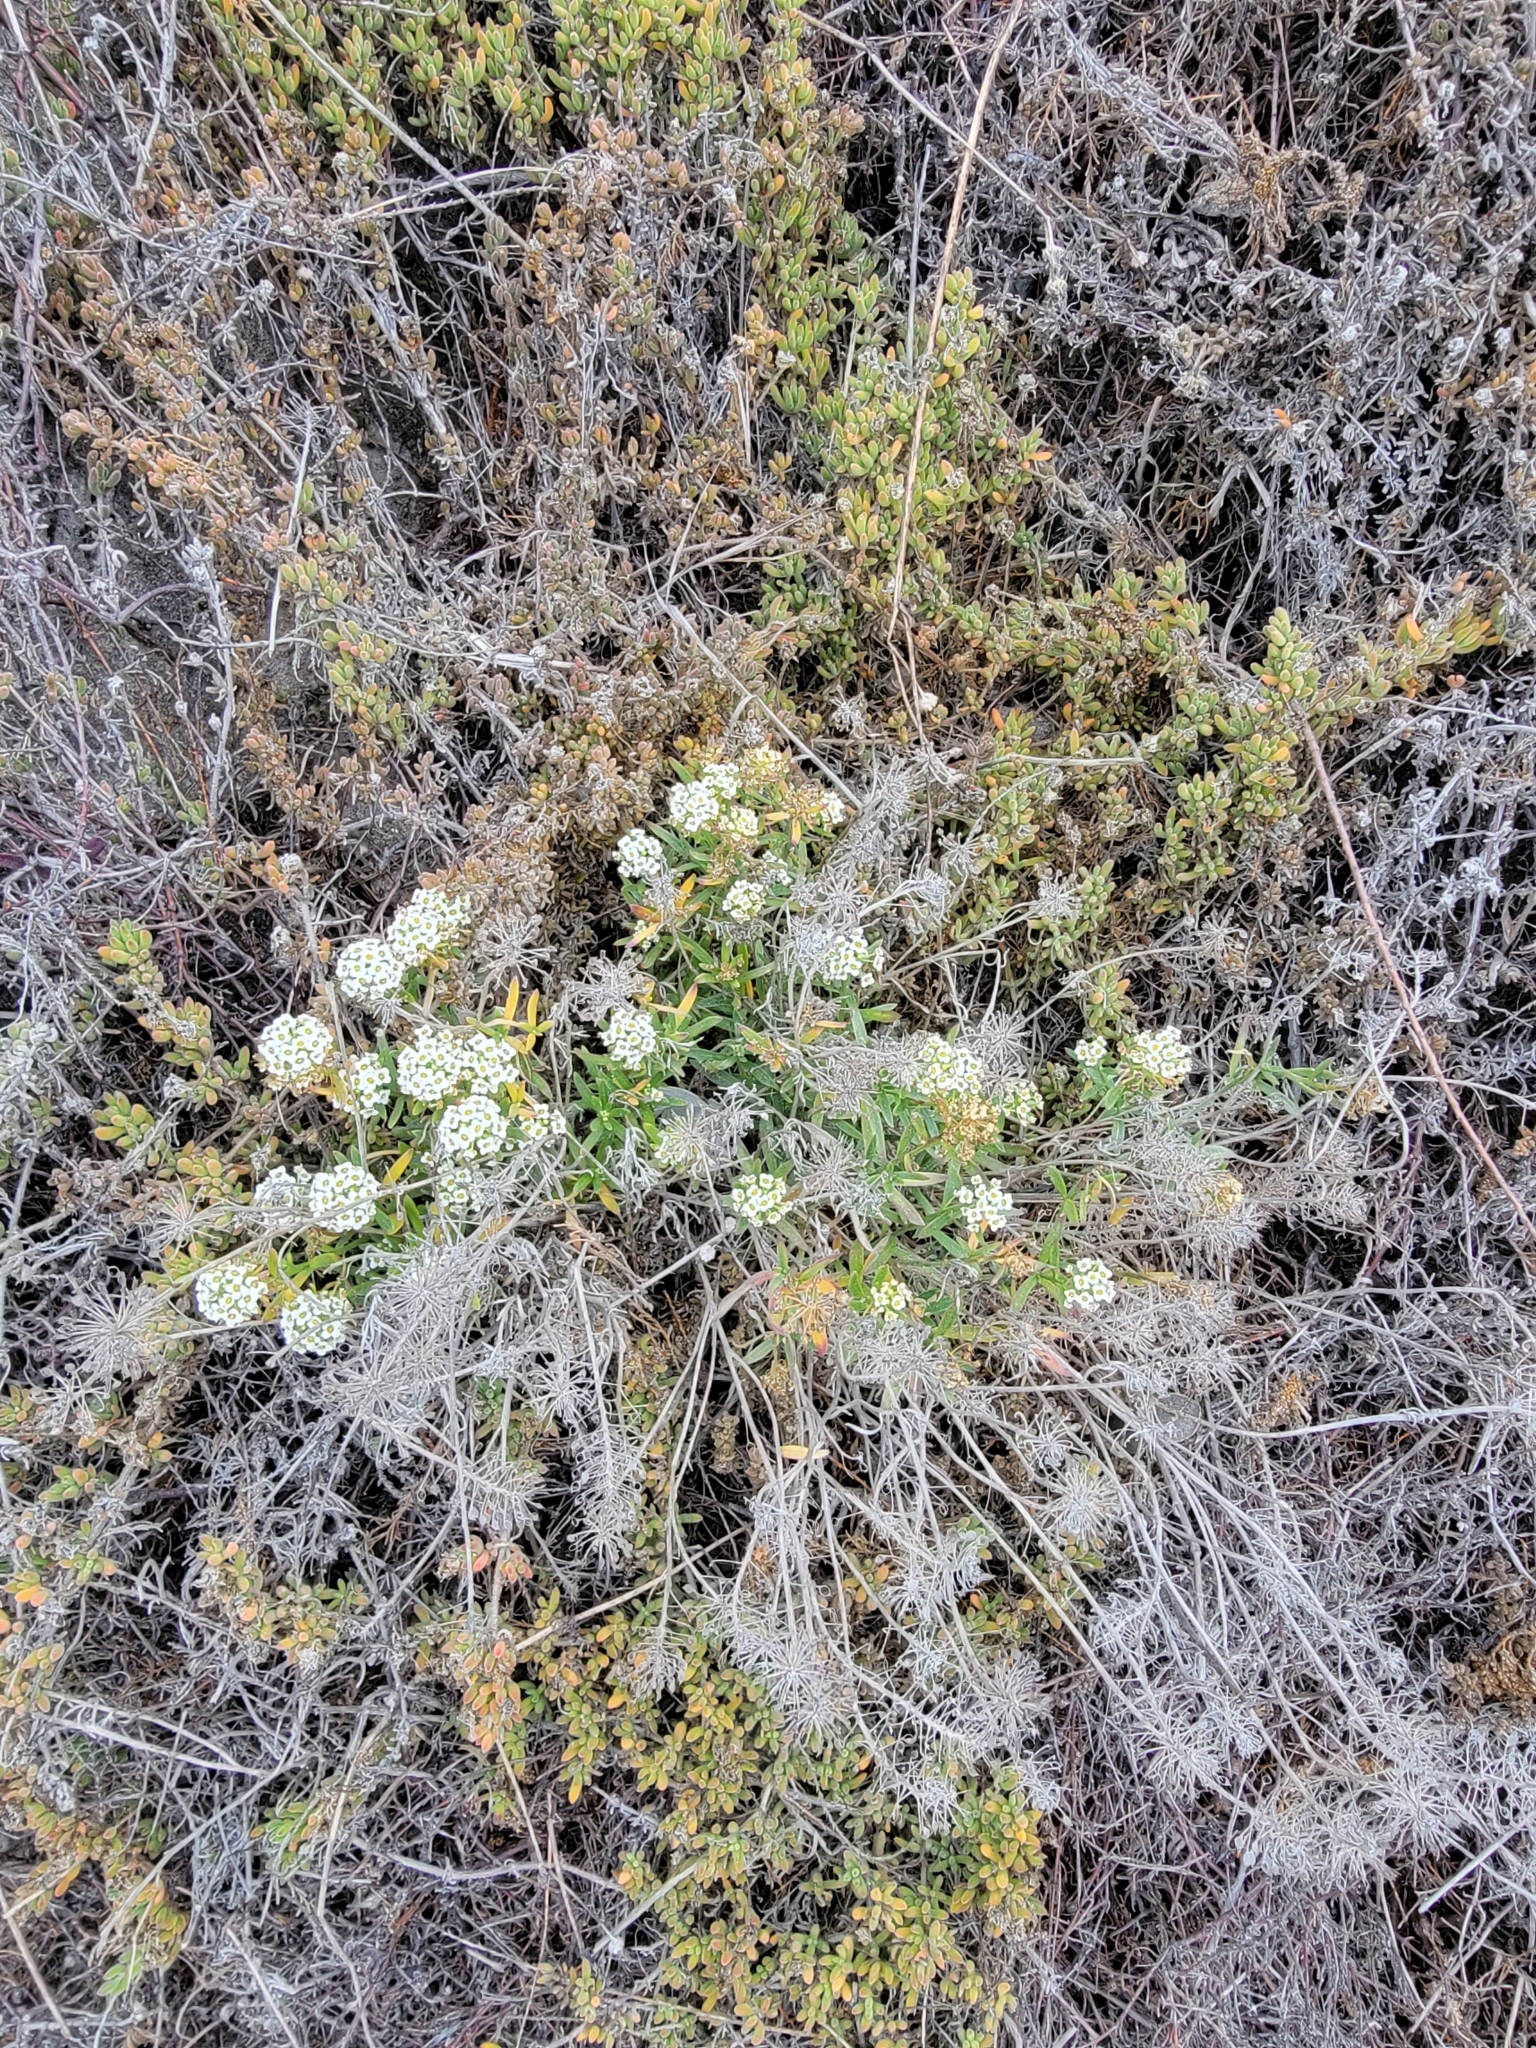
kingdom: Plantae
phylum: Tracheophyta
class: Magnoliopsida
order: Brassicales
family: Brassicaceae
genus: Lobularia
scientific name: Lobularia maritima
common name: Sweet alison
